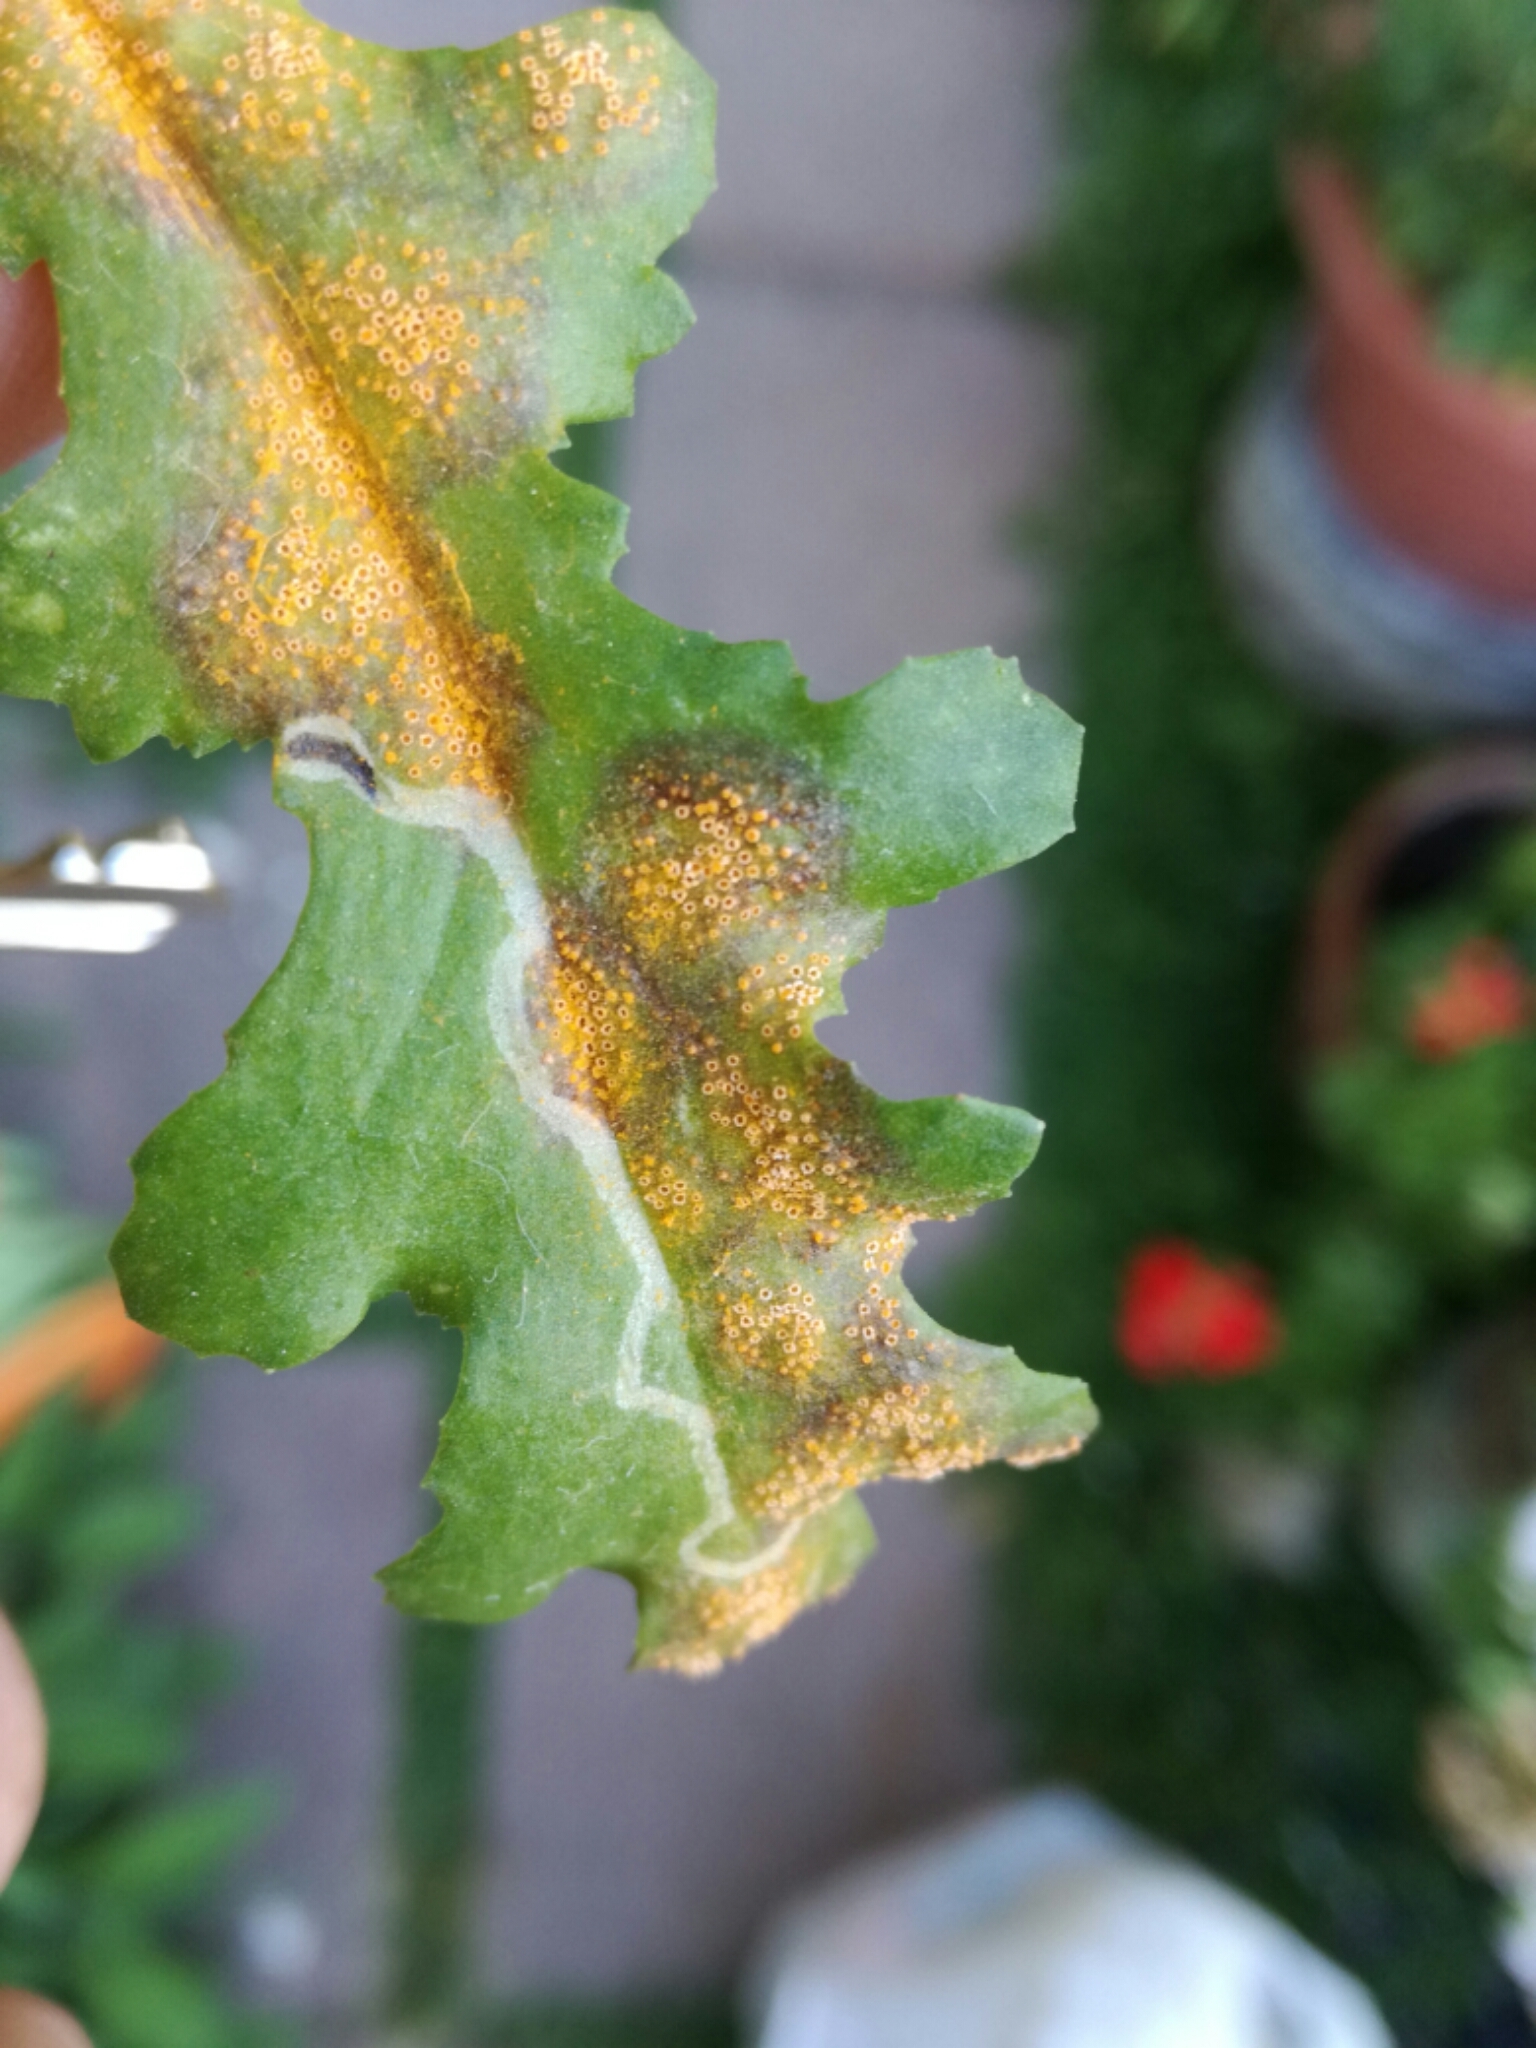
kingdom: Fungi
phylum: Basidiomycota
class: Pucciniomycetes
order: Pucciniales
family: Pucciniaceae
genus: Puccinia
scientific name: Puccinia lagenophorae
